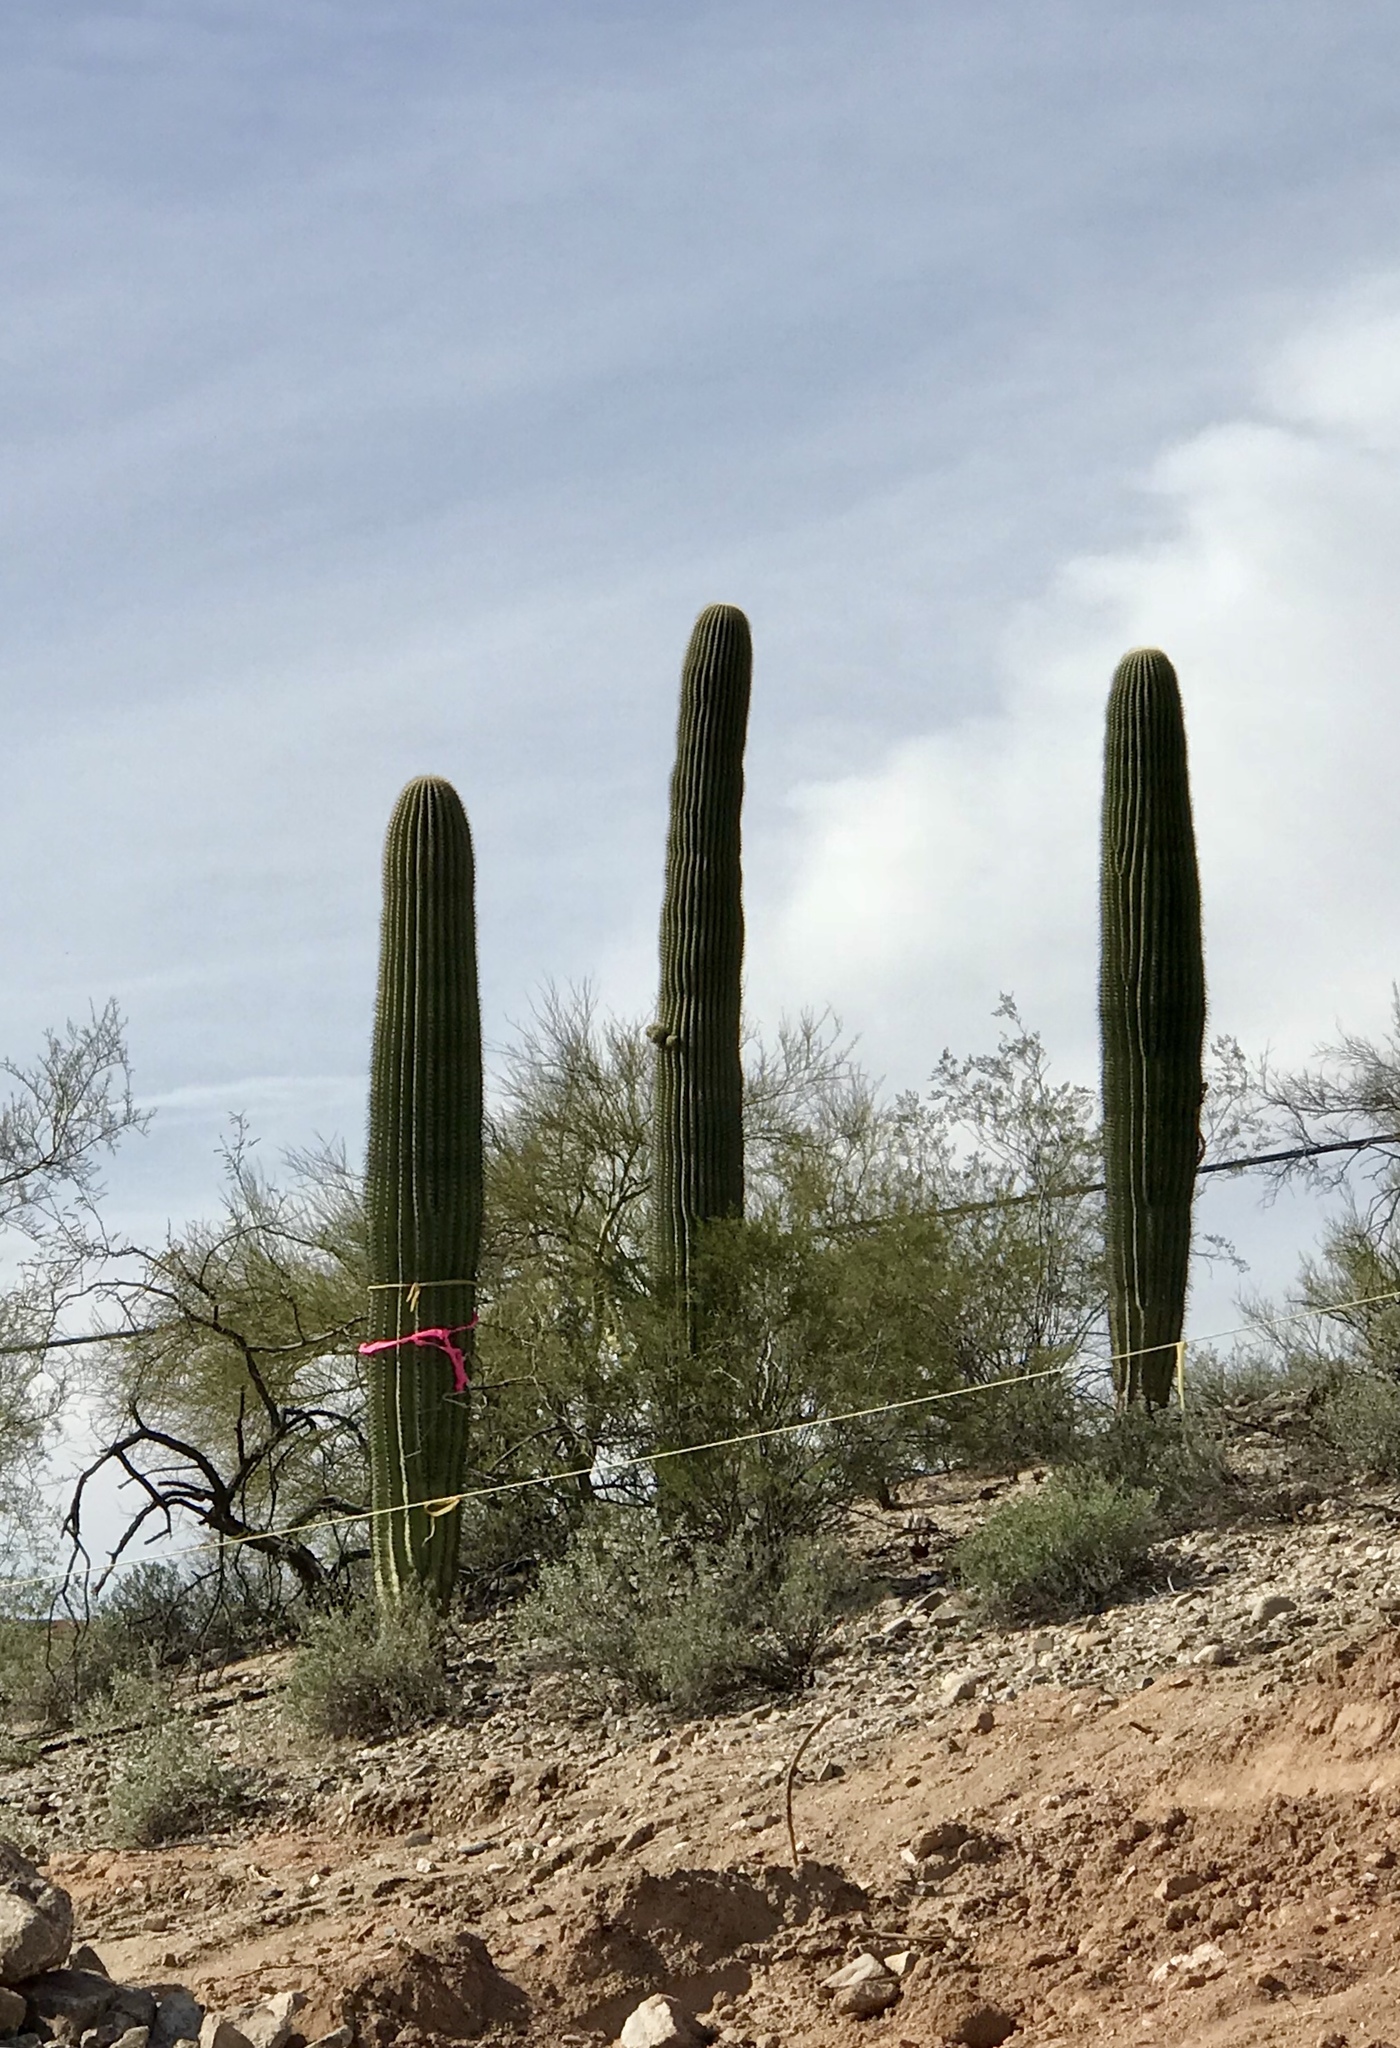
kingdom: Plantae
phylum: Tracheophyta
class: Magnoliopsida
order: Caryophyllales
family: Cactaceae
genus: Carnegiea
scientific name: Carnegiea gigantea
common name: Saguaro
